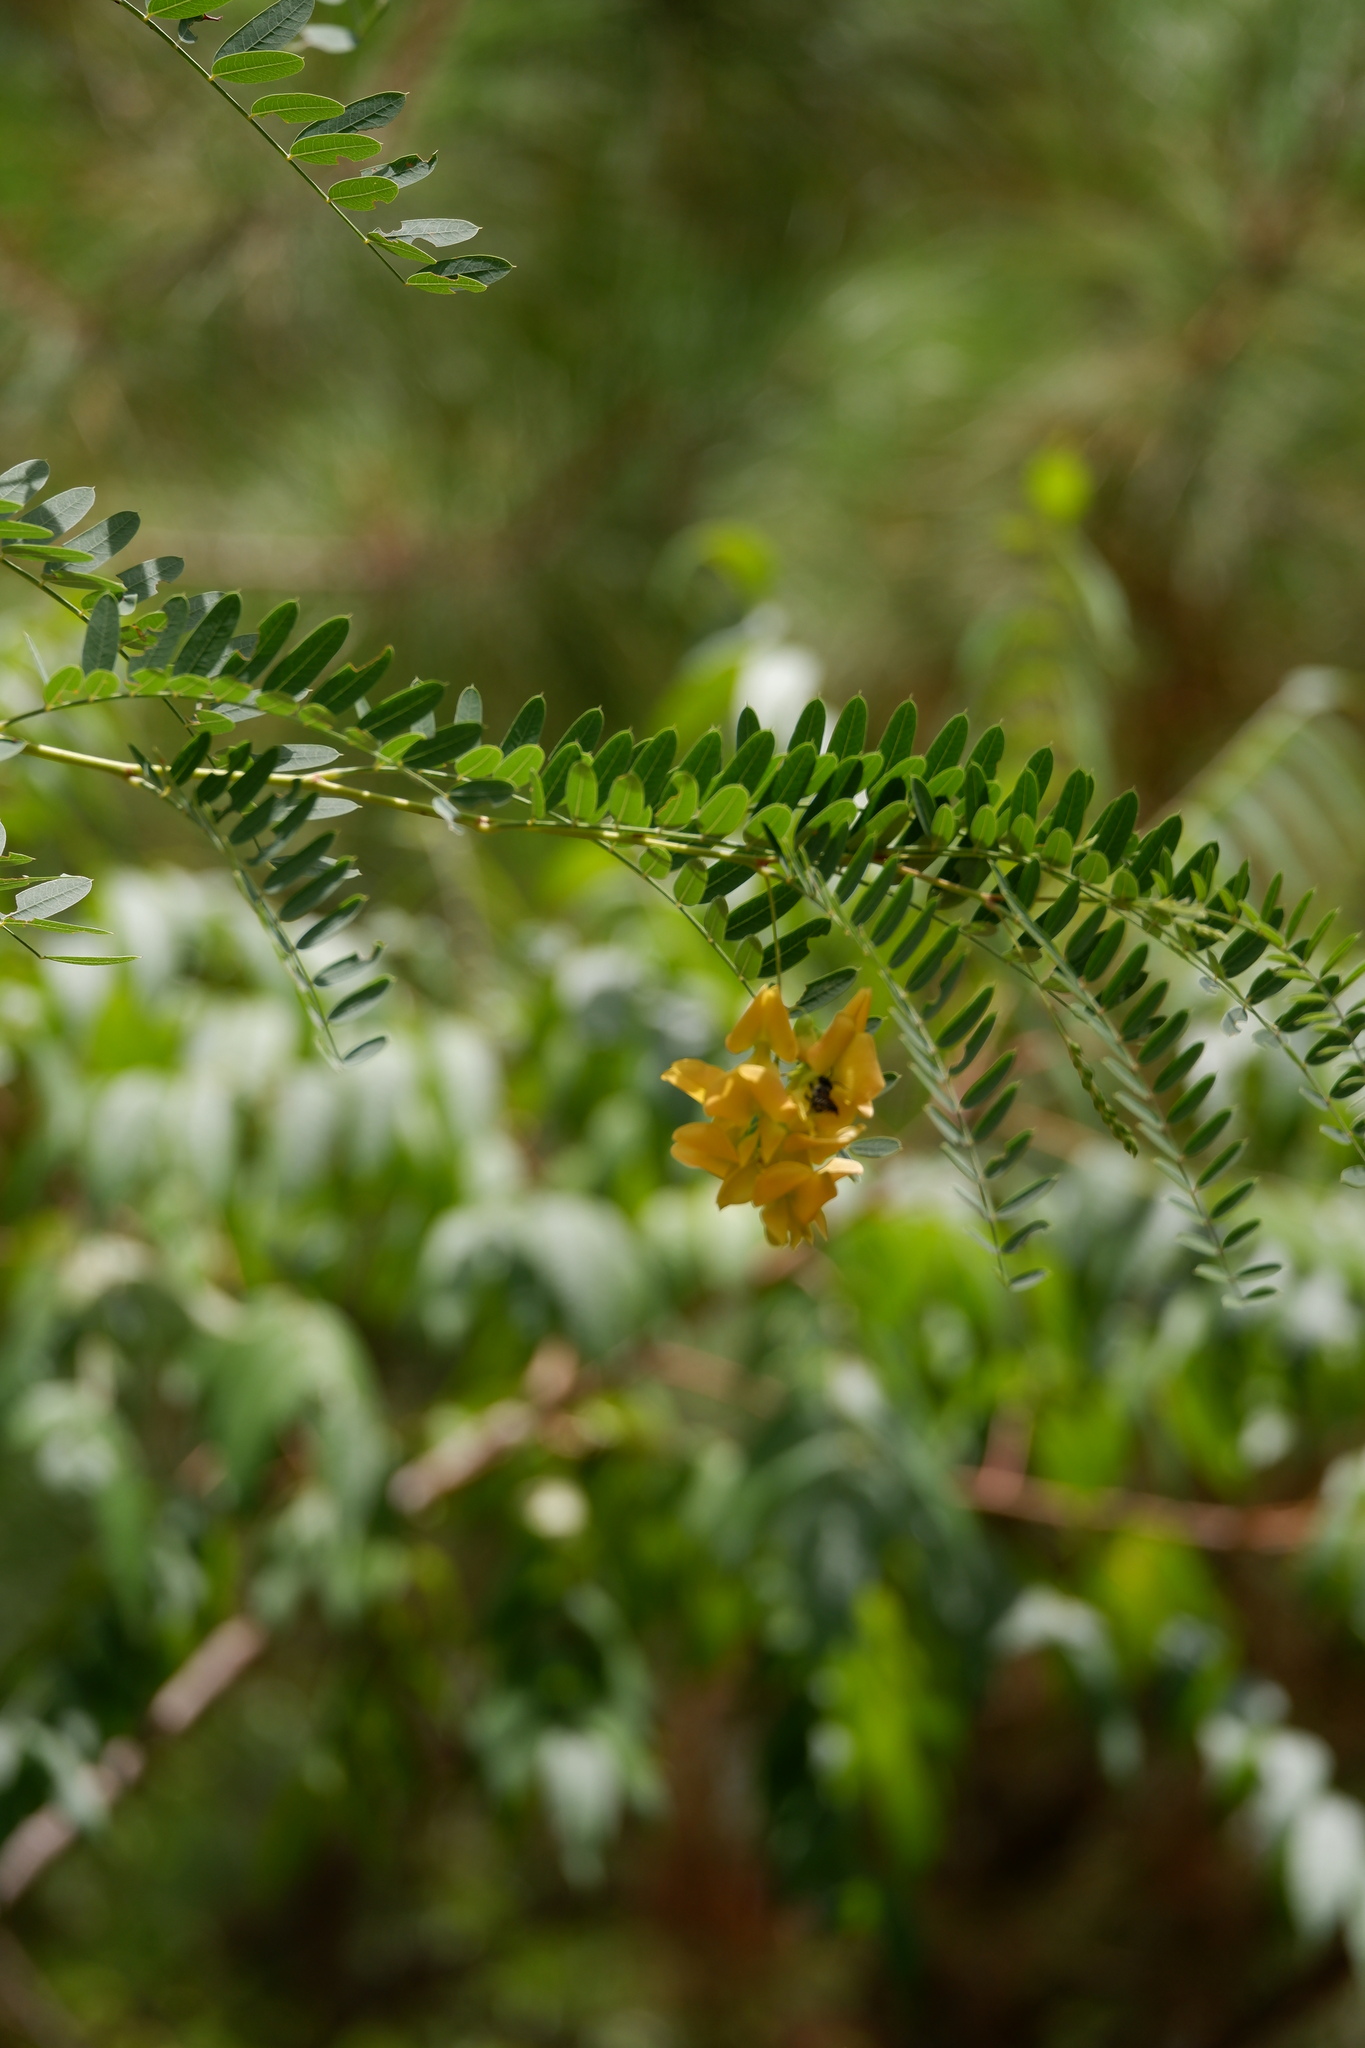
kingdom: Plantae
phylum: Tracheophyta
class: Magnoliopsida
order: Fabales
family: Fabaceae
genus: Sesbania
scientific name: Sesbania drummondii
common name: Poison-bean
